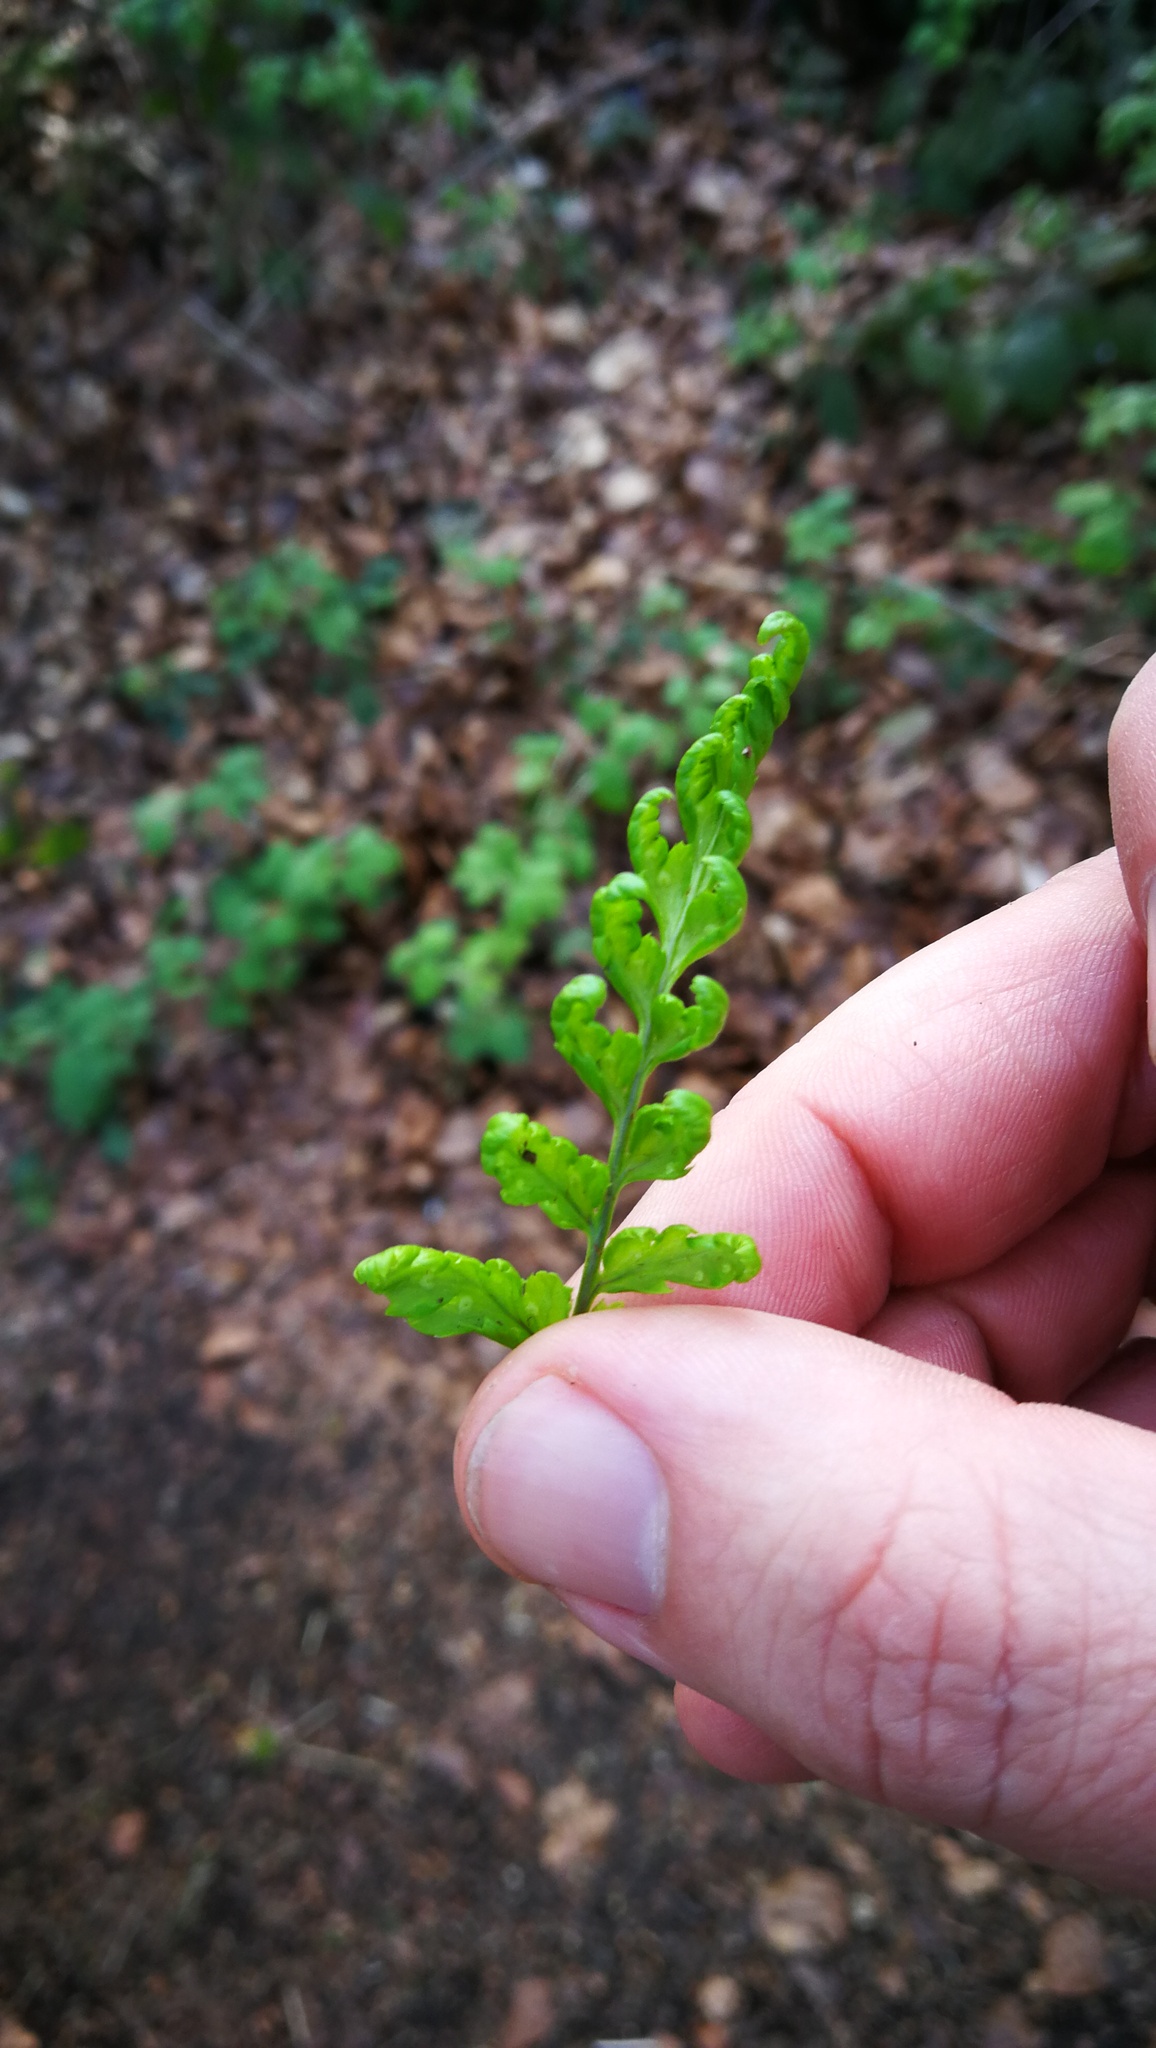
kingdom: Plantae
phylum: Tracheophyta
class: Polypodiopsida
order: Polypodiales
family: Dryopteridaceae
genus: Dryopteris
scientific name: Dryopteris dilatata
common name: Broad buckler-fern
